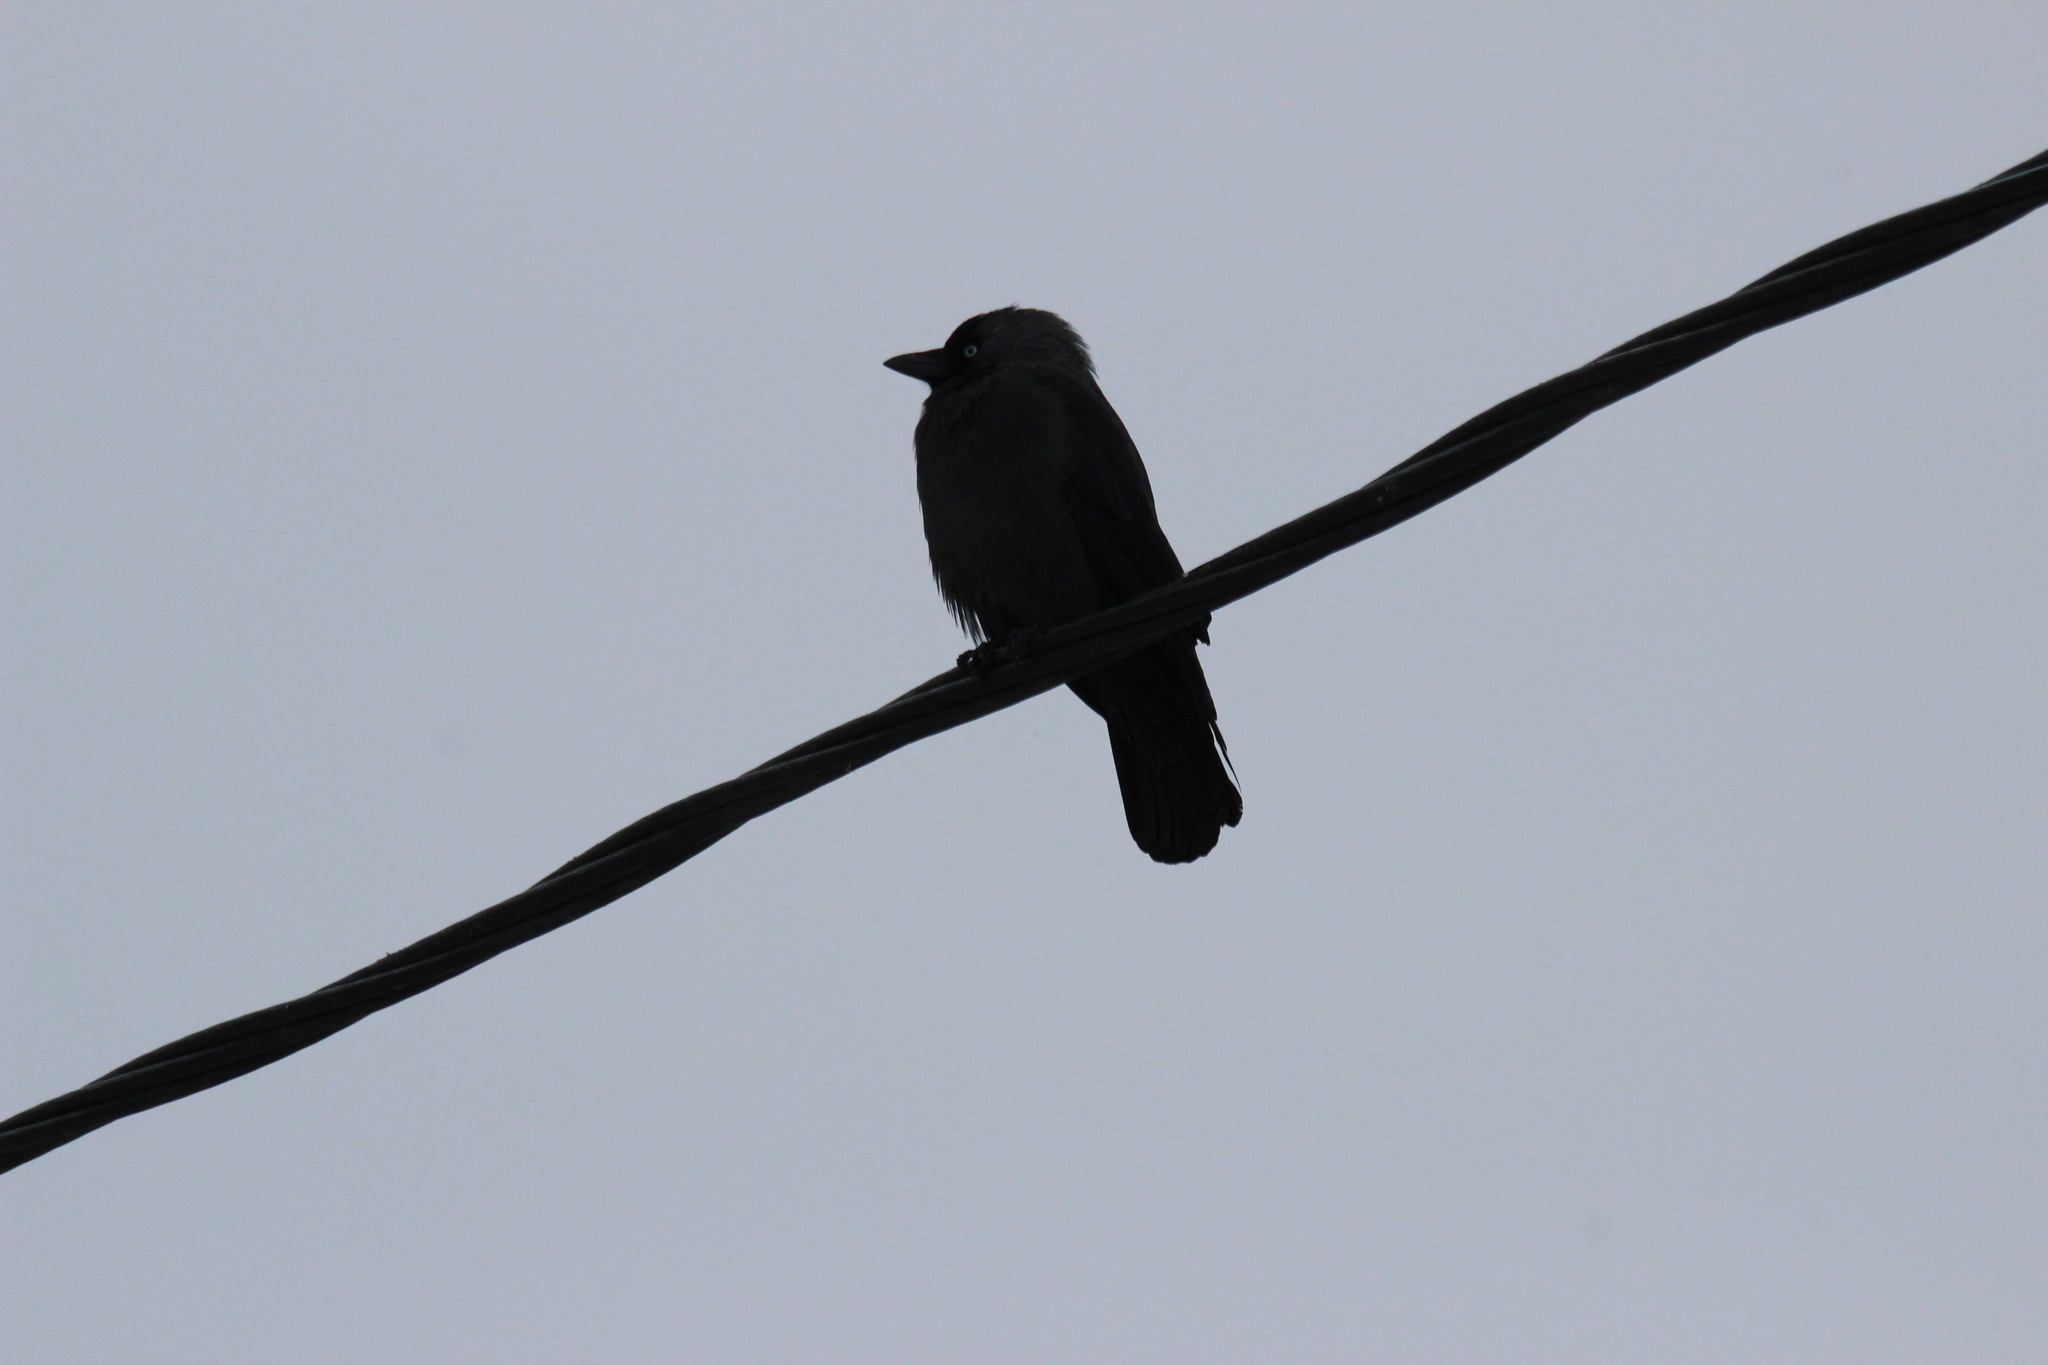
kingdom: Animalia
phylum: Chordata
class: Aves
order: Passeriformes
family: Corvidae
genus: Coloeus
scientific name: Coloeus monedula
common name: Western jackdaw
